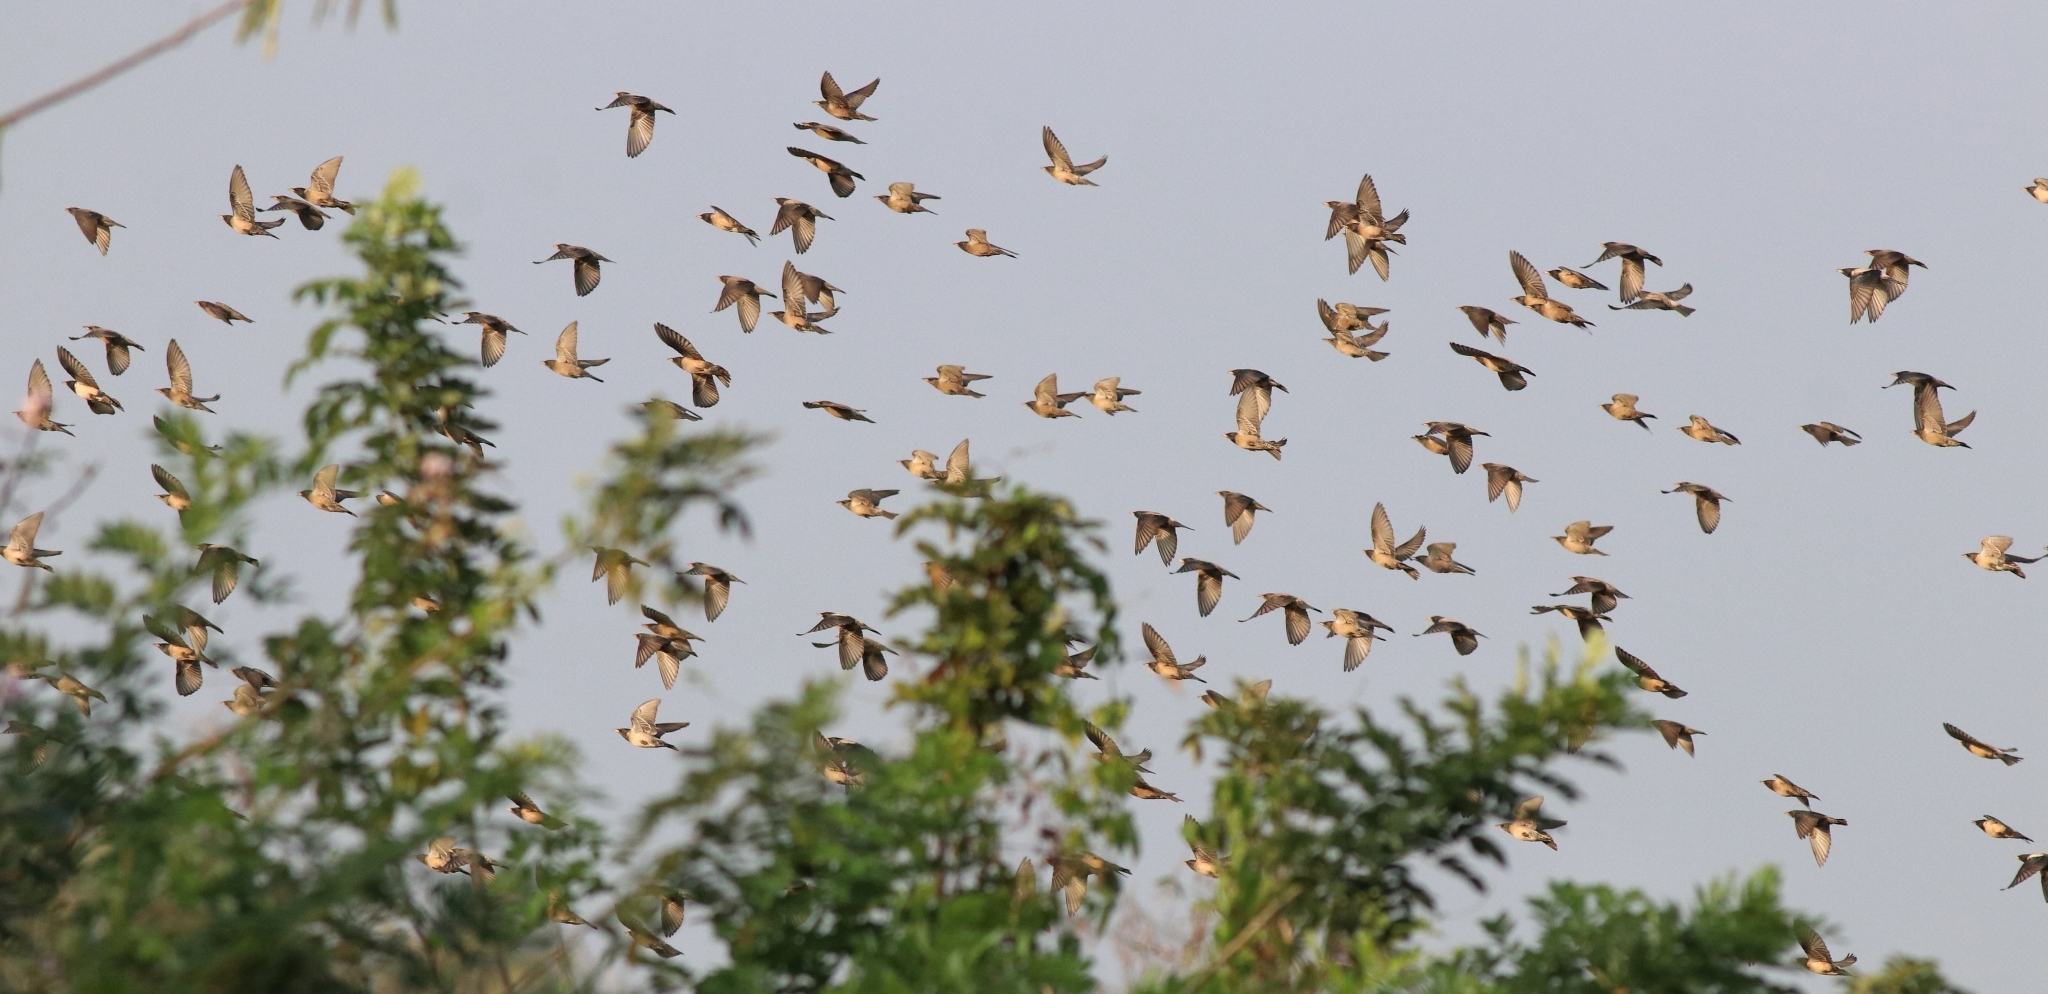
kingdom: Animalia
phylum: Chordata
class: Aves
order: Passeriformes
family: Sturnidae
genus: Pastor
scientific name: Pastor roseus
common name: Rosy starling
